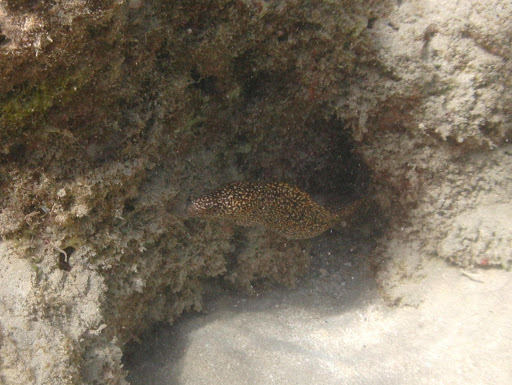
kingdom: Animalia
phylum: Chordata
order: Anguilliformes
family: Muraenidae
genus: Gymnothorax
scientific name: Gymnothorax eurostus
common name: Stout moray
